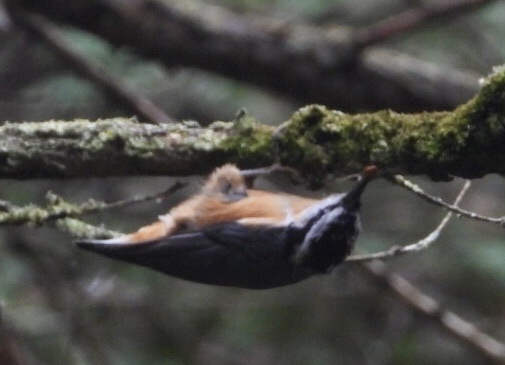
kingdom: Animalia
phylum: Chordata
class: Aves
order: Passeriformes
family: Sittidae
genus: Sitta
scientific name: Sitta canadensis
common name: Red-breasted nuthatch
